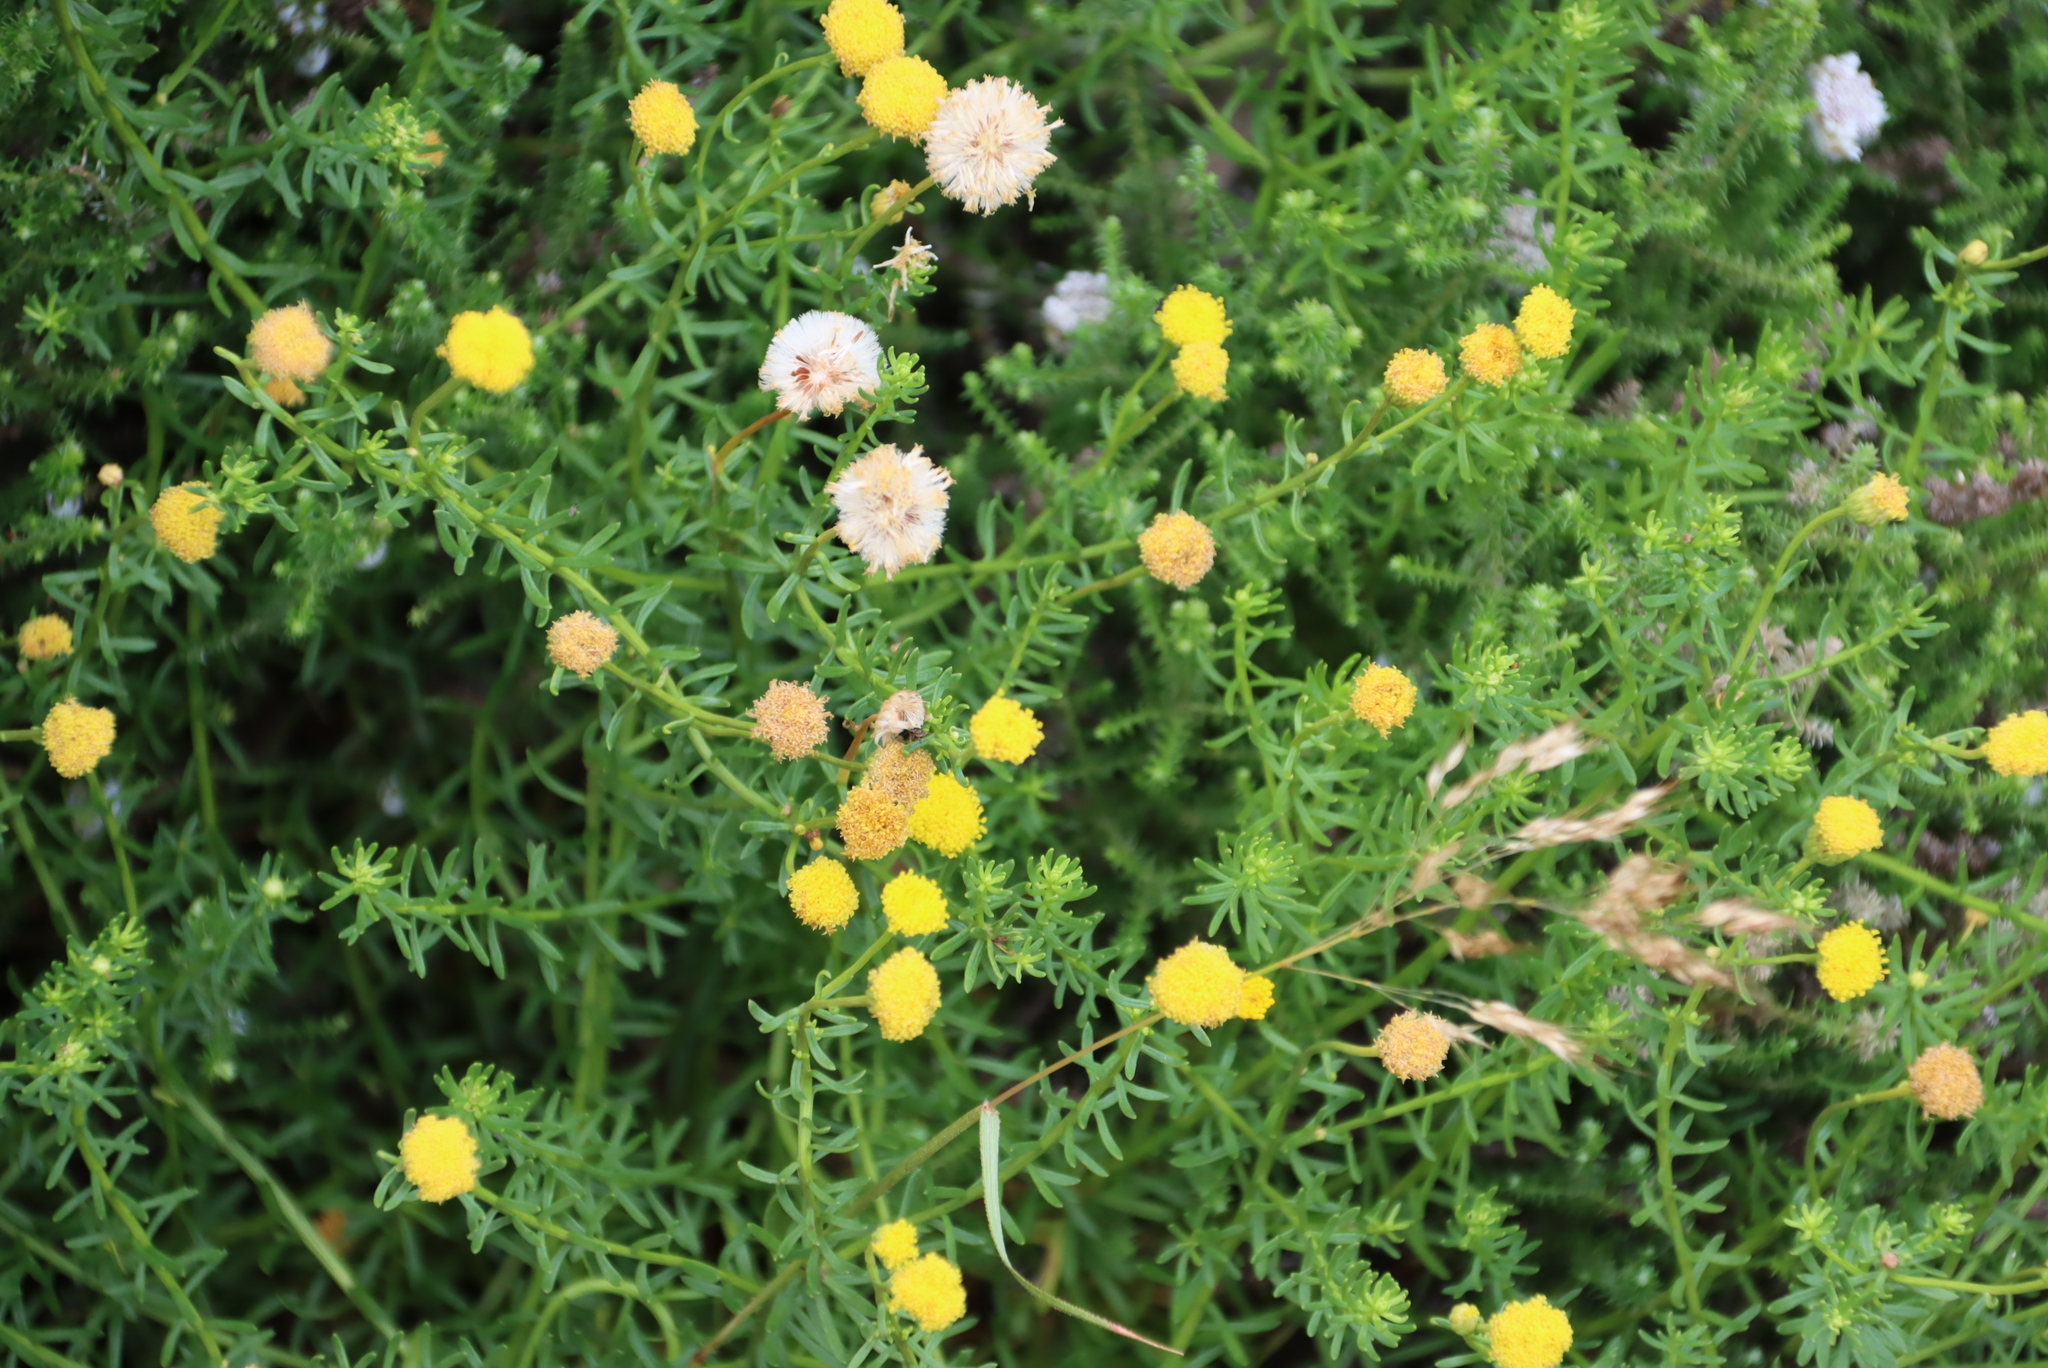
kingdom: Plantae
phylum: Tracheophyta
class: Magnoliopsida
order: Asterales
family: Asteraceae
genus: Chrysocoma
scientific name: Chrysocoma ciliata
